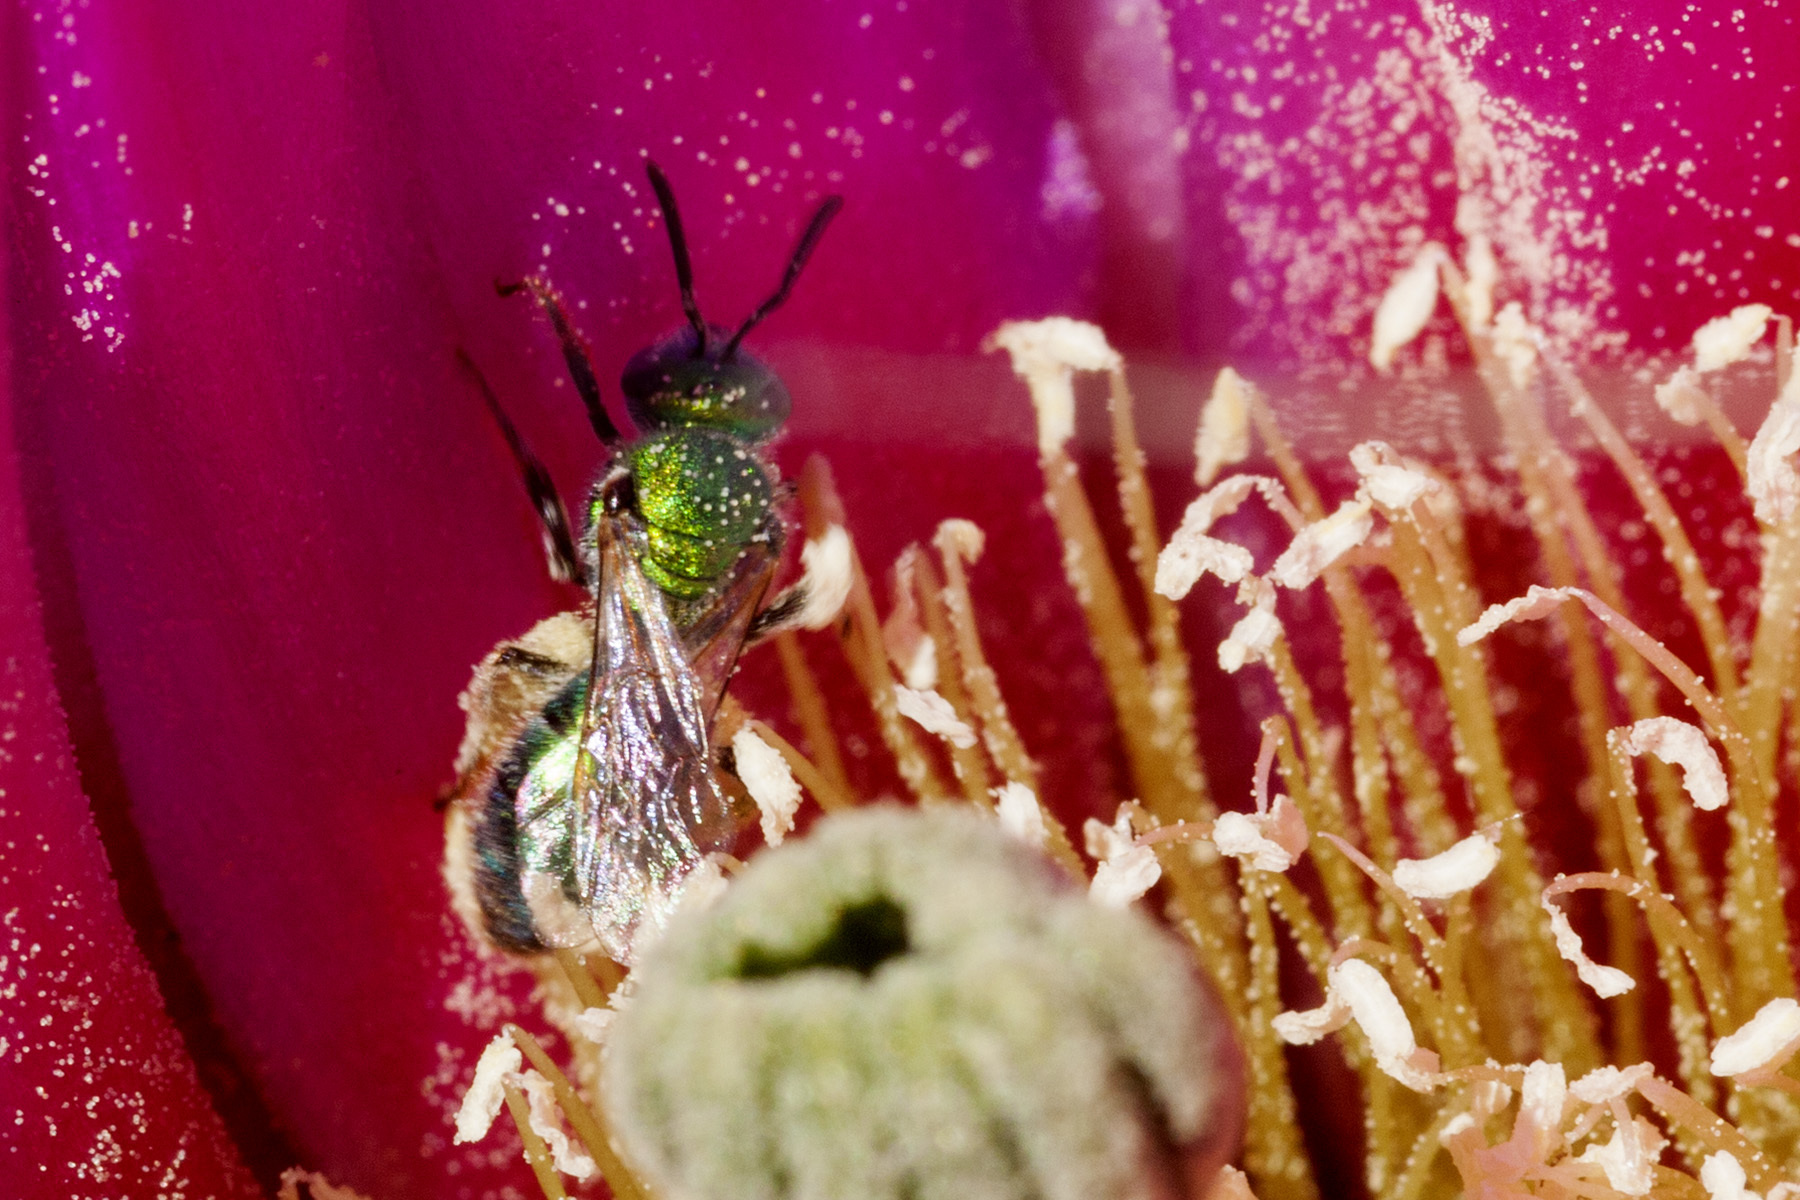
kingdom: Animalia
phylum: Arthropoda
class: Insecta
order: Hymenoptera
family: Halictidae
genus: Augochlorella
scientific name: Augochlorella
